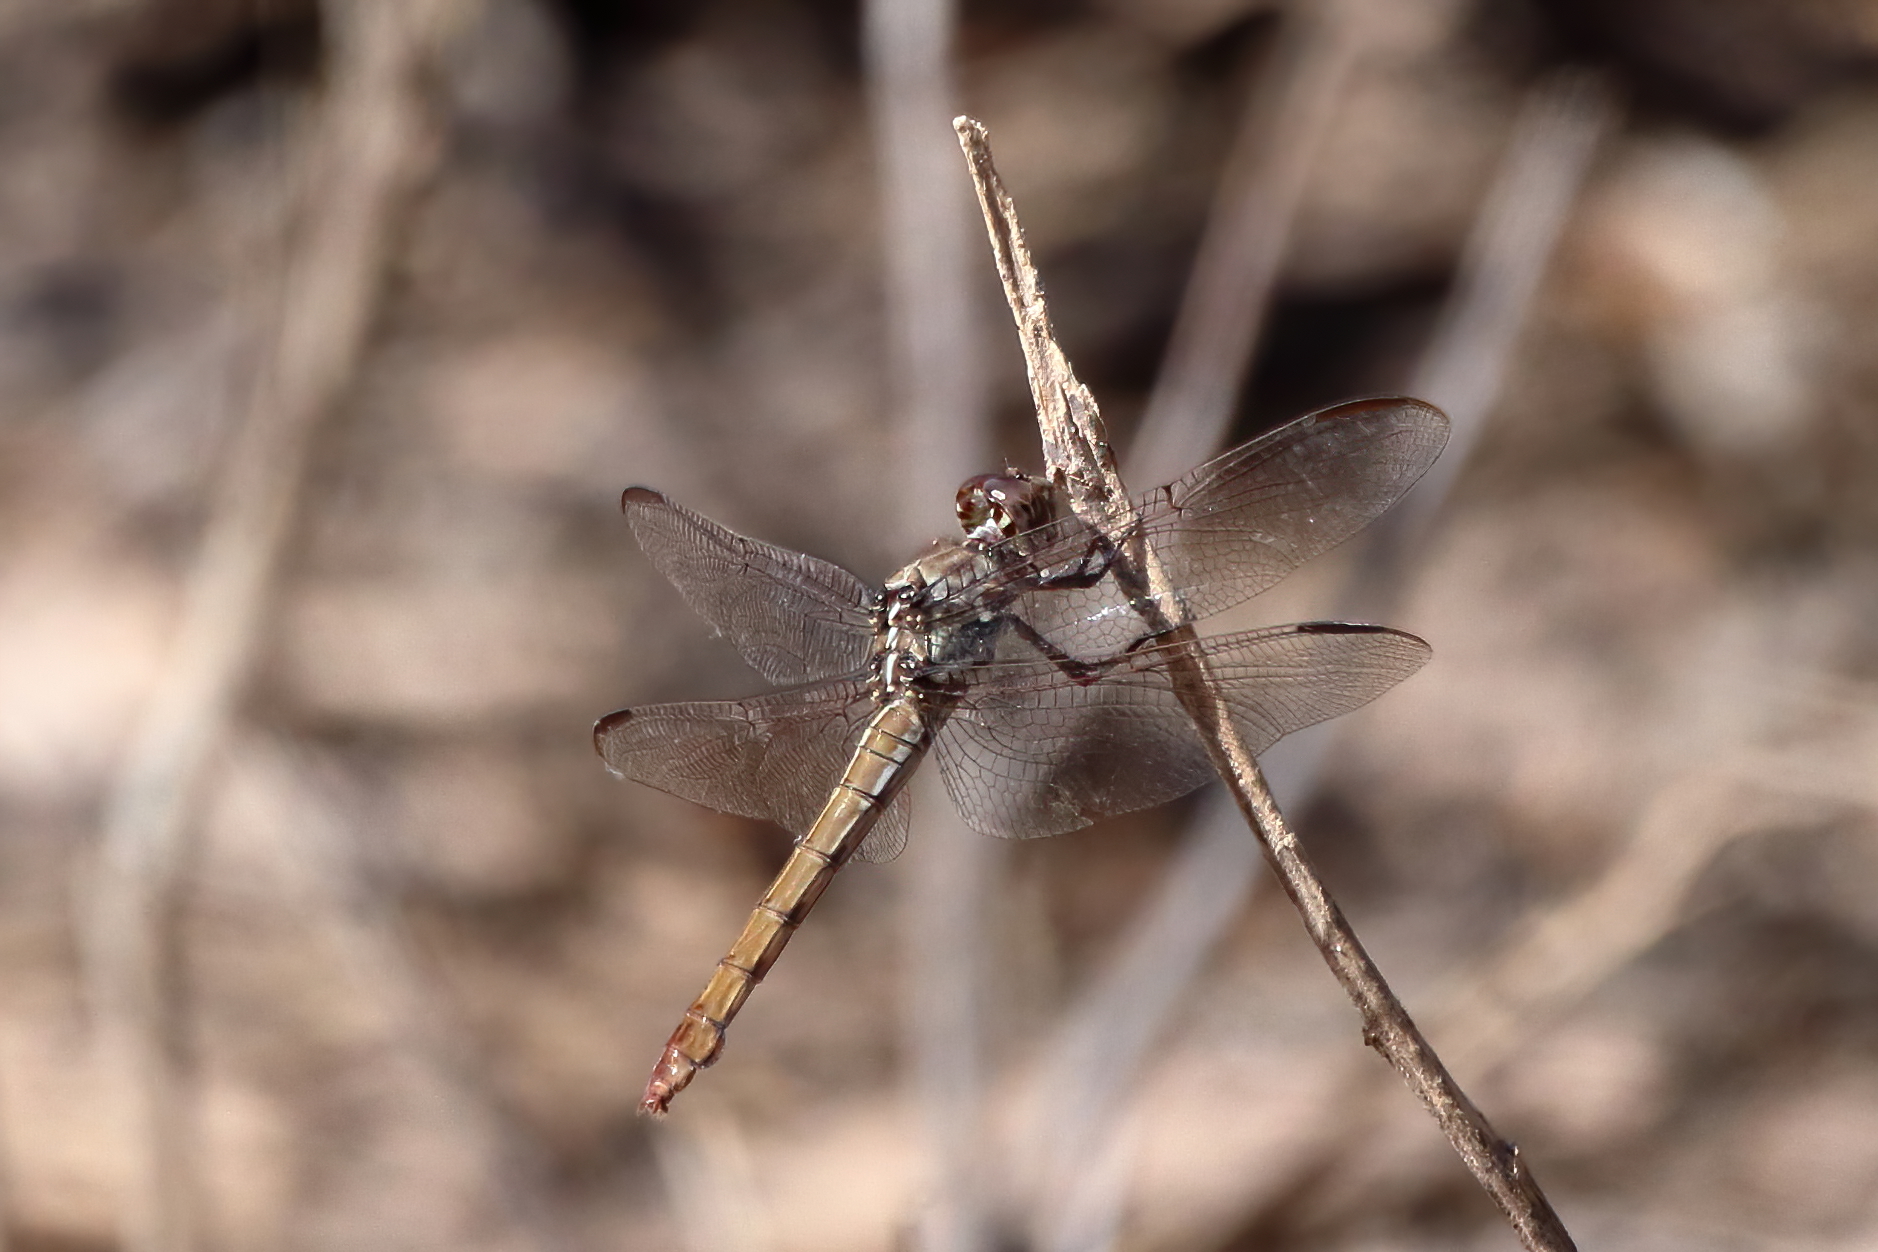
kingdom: Animalia
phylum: Arthropoda
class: Insecta
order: Odonata
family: Libellulidae
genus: Orthemis
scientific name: Orthemis ferruginea
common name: Roseate skimmer
